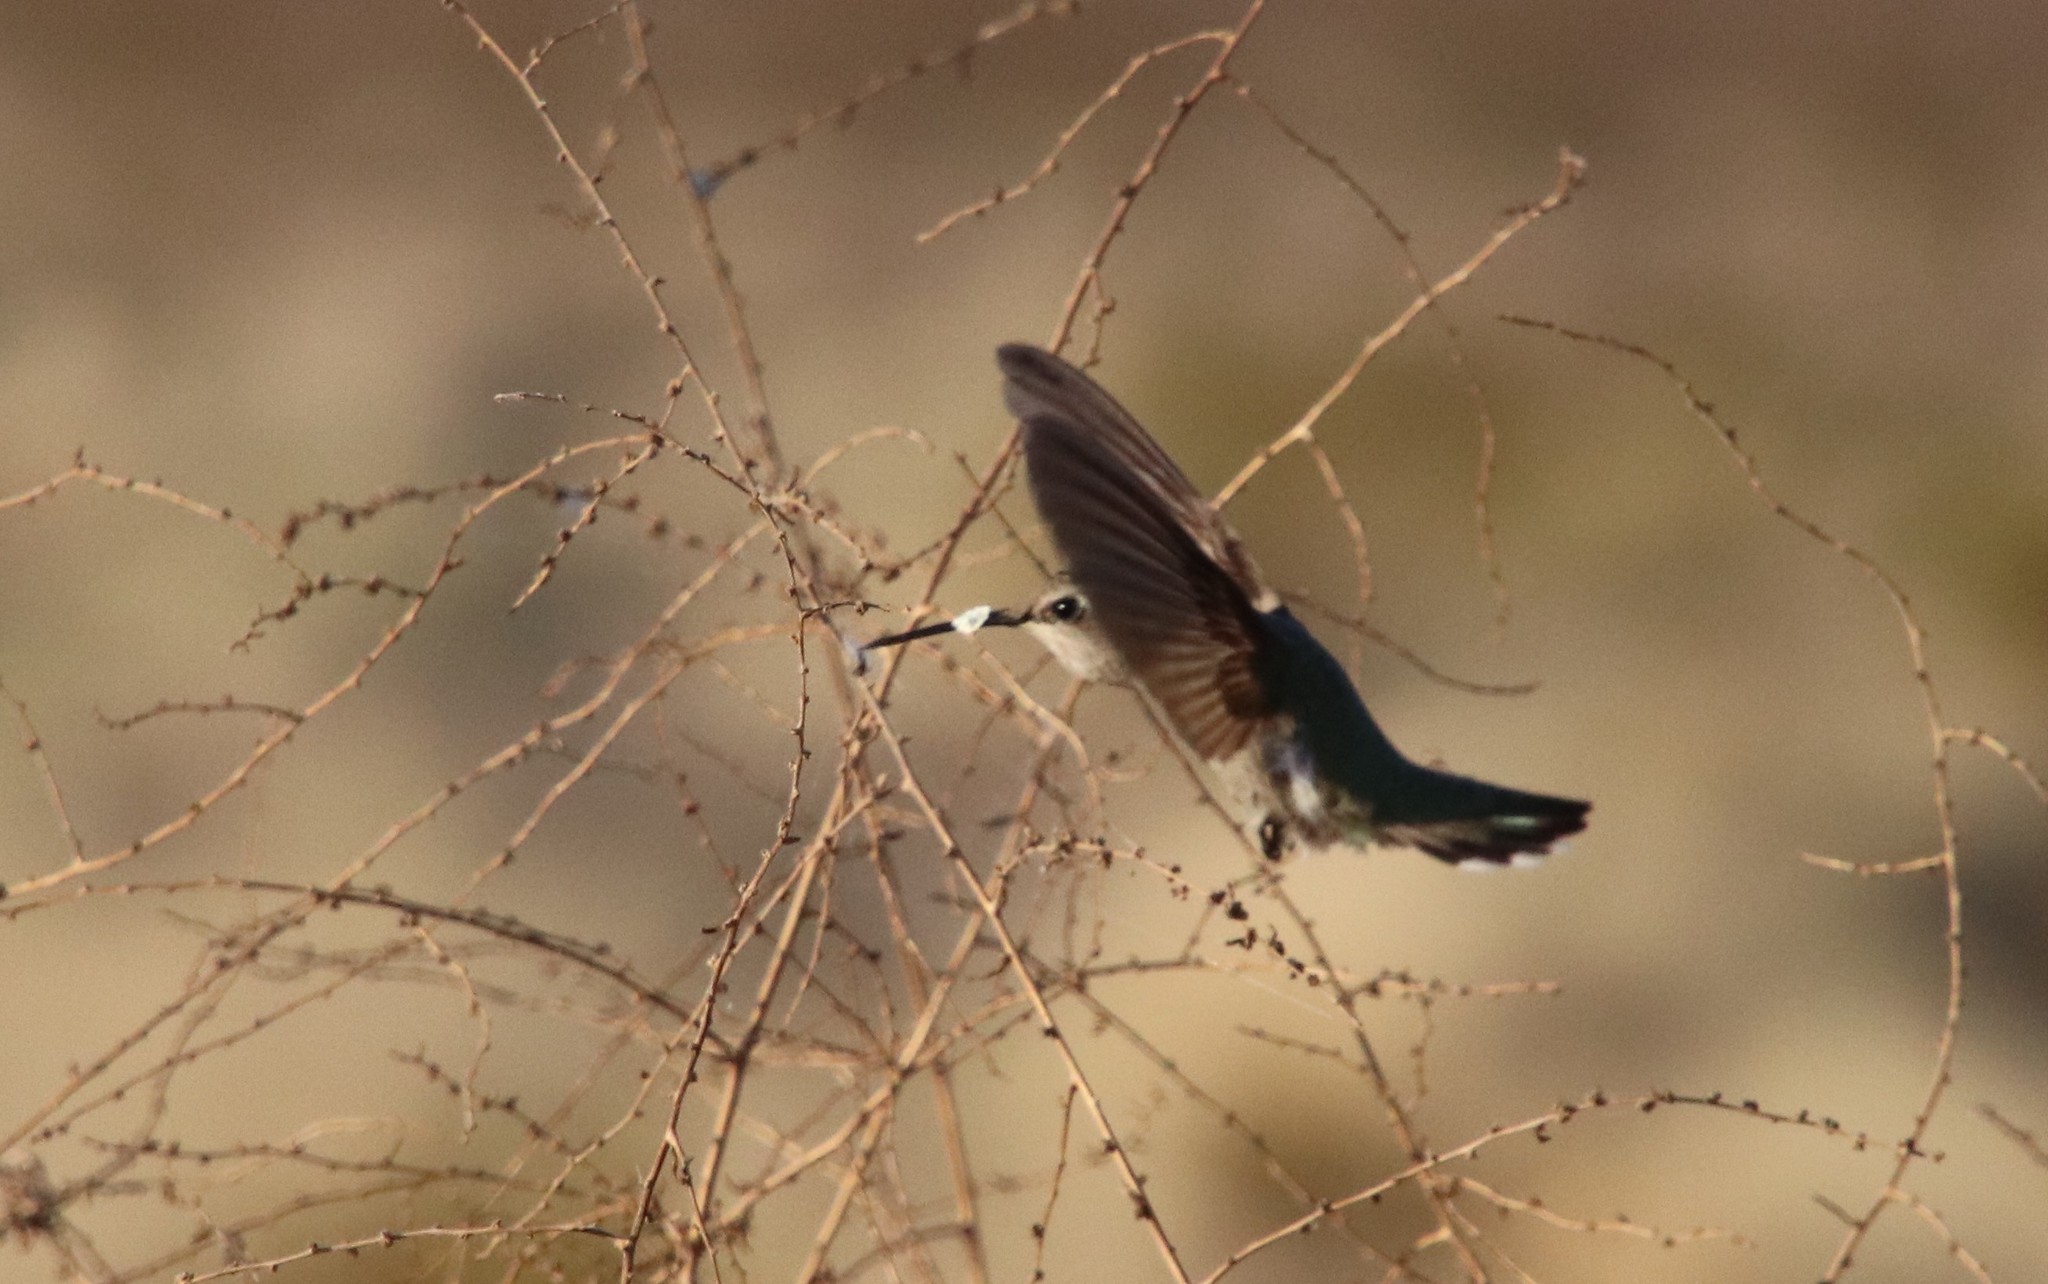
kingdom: Animalia
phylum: Chordata
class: Aves
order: Apodiformes
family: Trochilidae
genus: Calypte
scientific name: Calypte costae
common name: Costa's hummingbird
